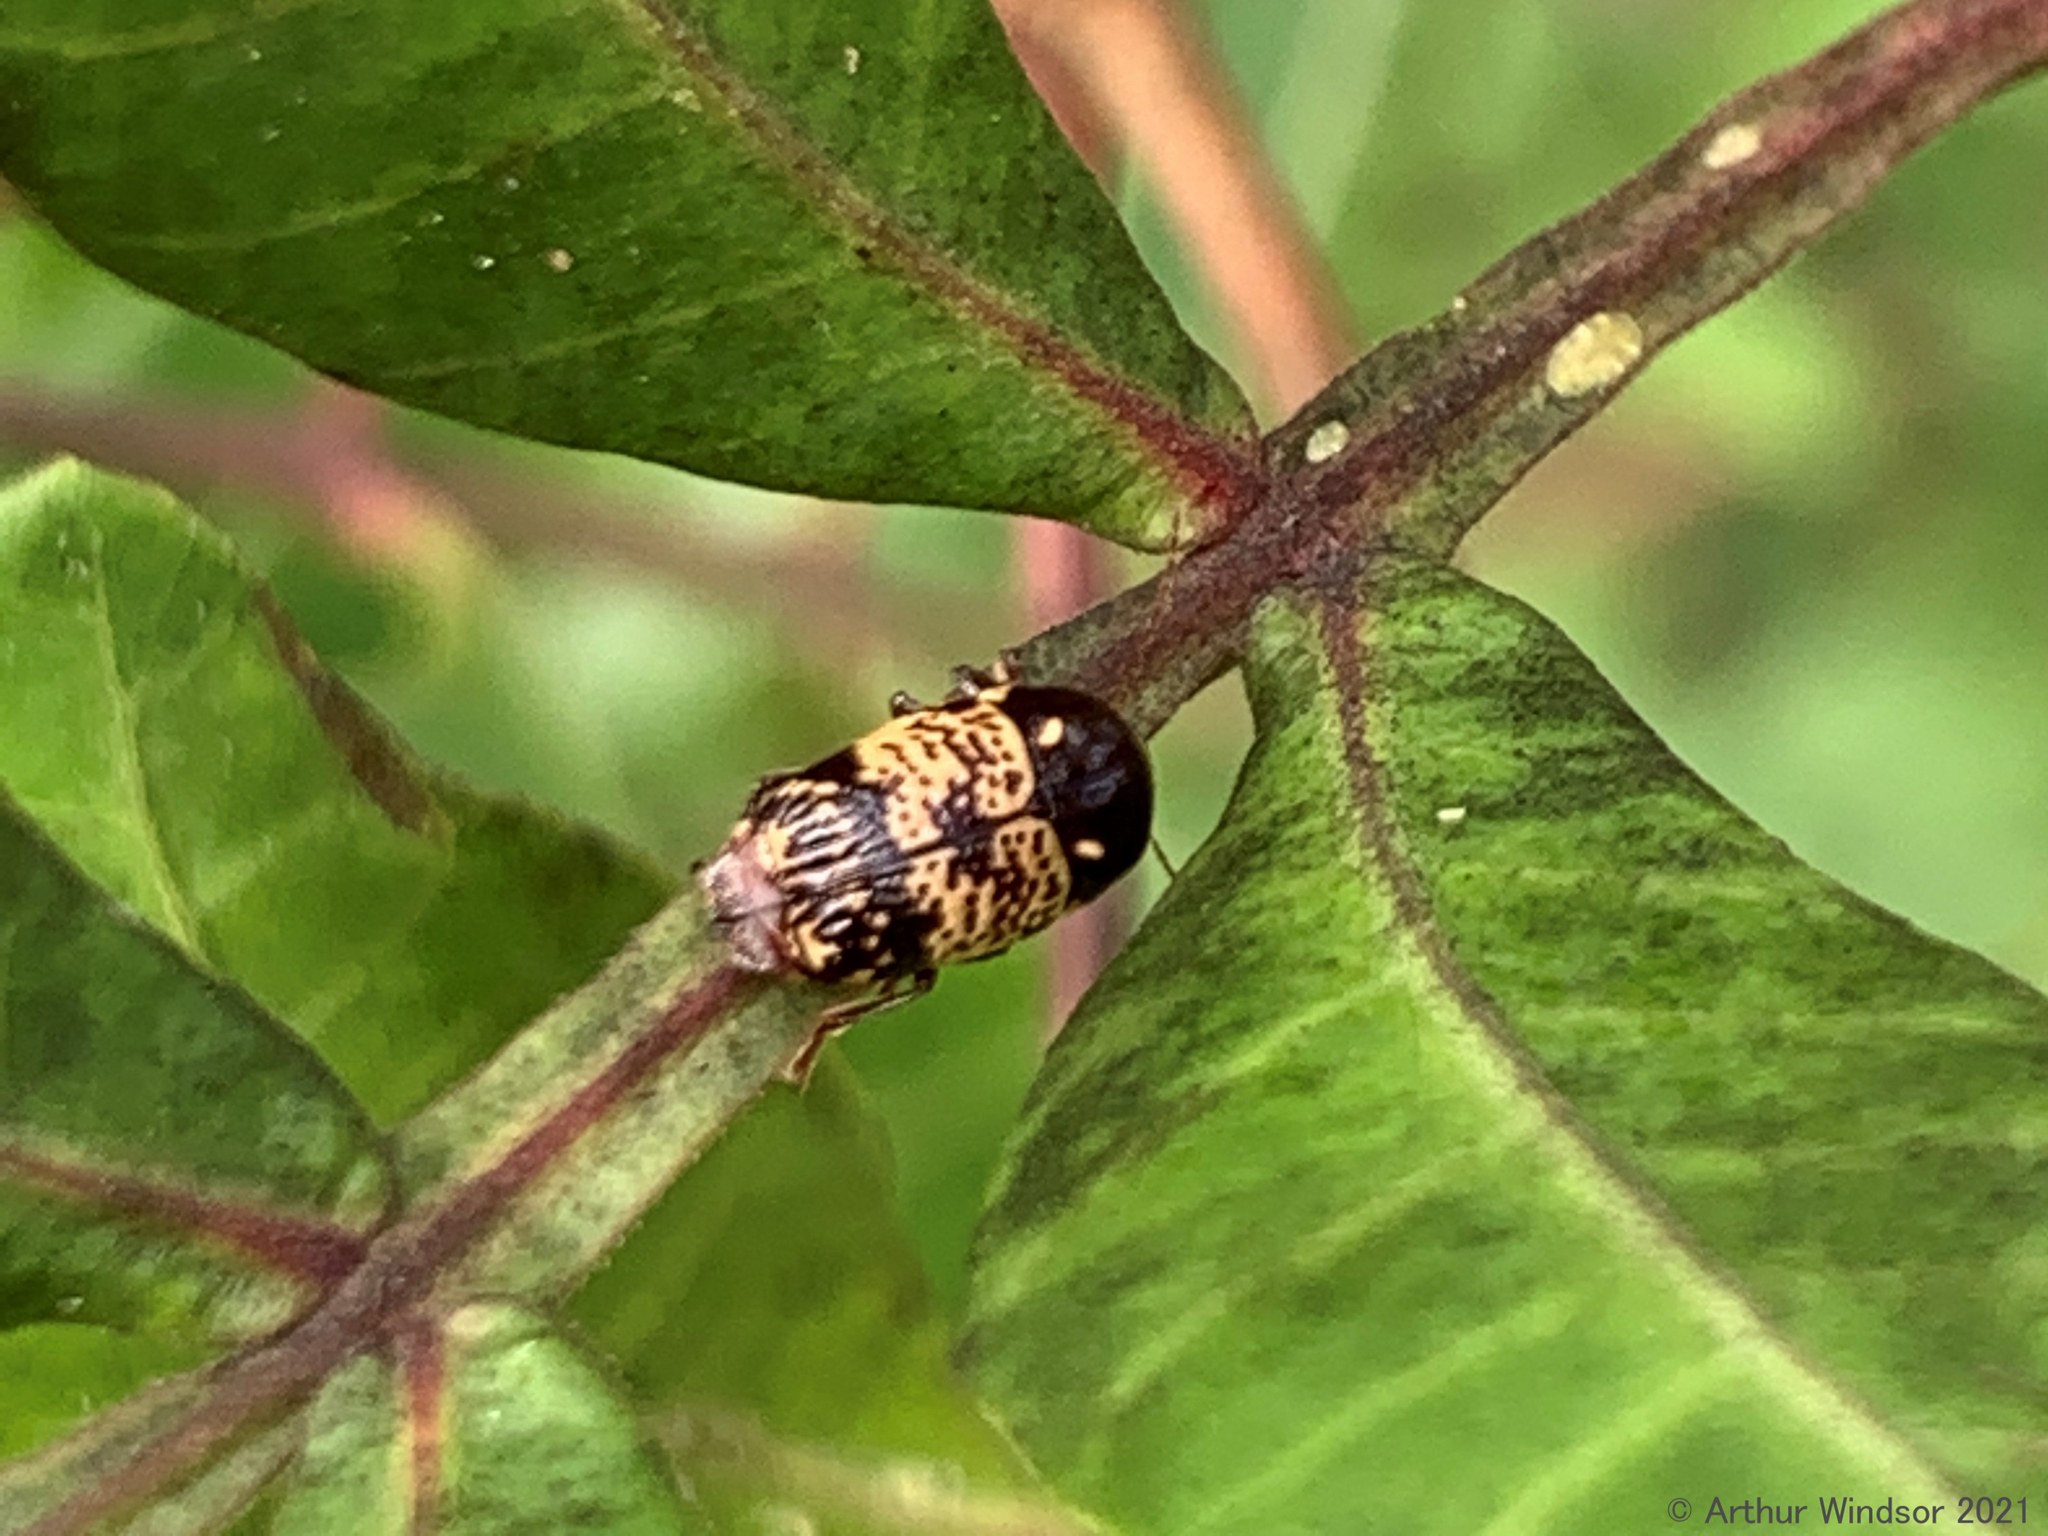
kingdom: Animalia
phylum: Arthropoda
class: Insecta
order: Coleoptera
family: Chrysomelidae
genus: Cryptocephalus
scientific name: Cryptocephalus irroratus
